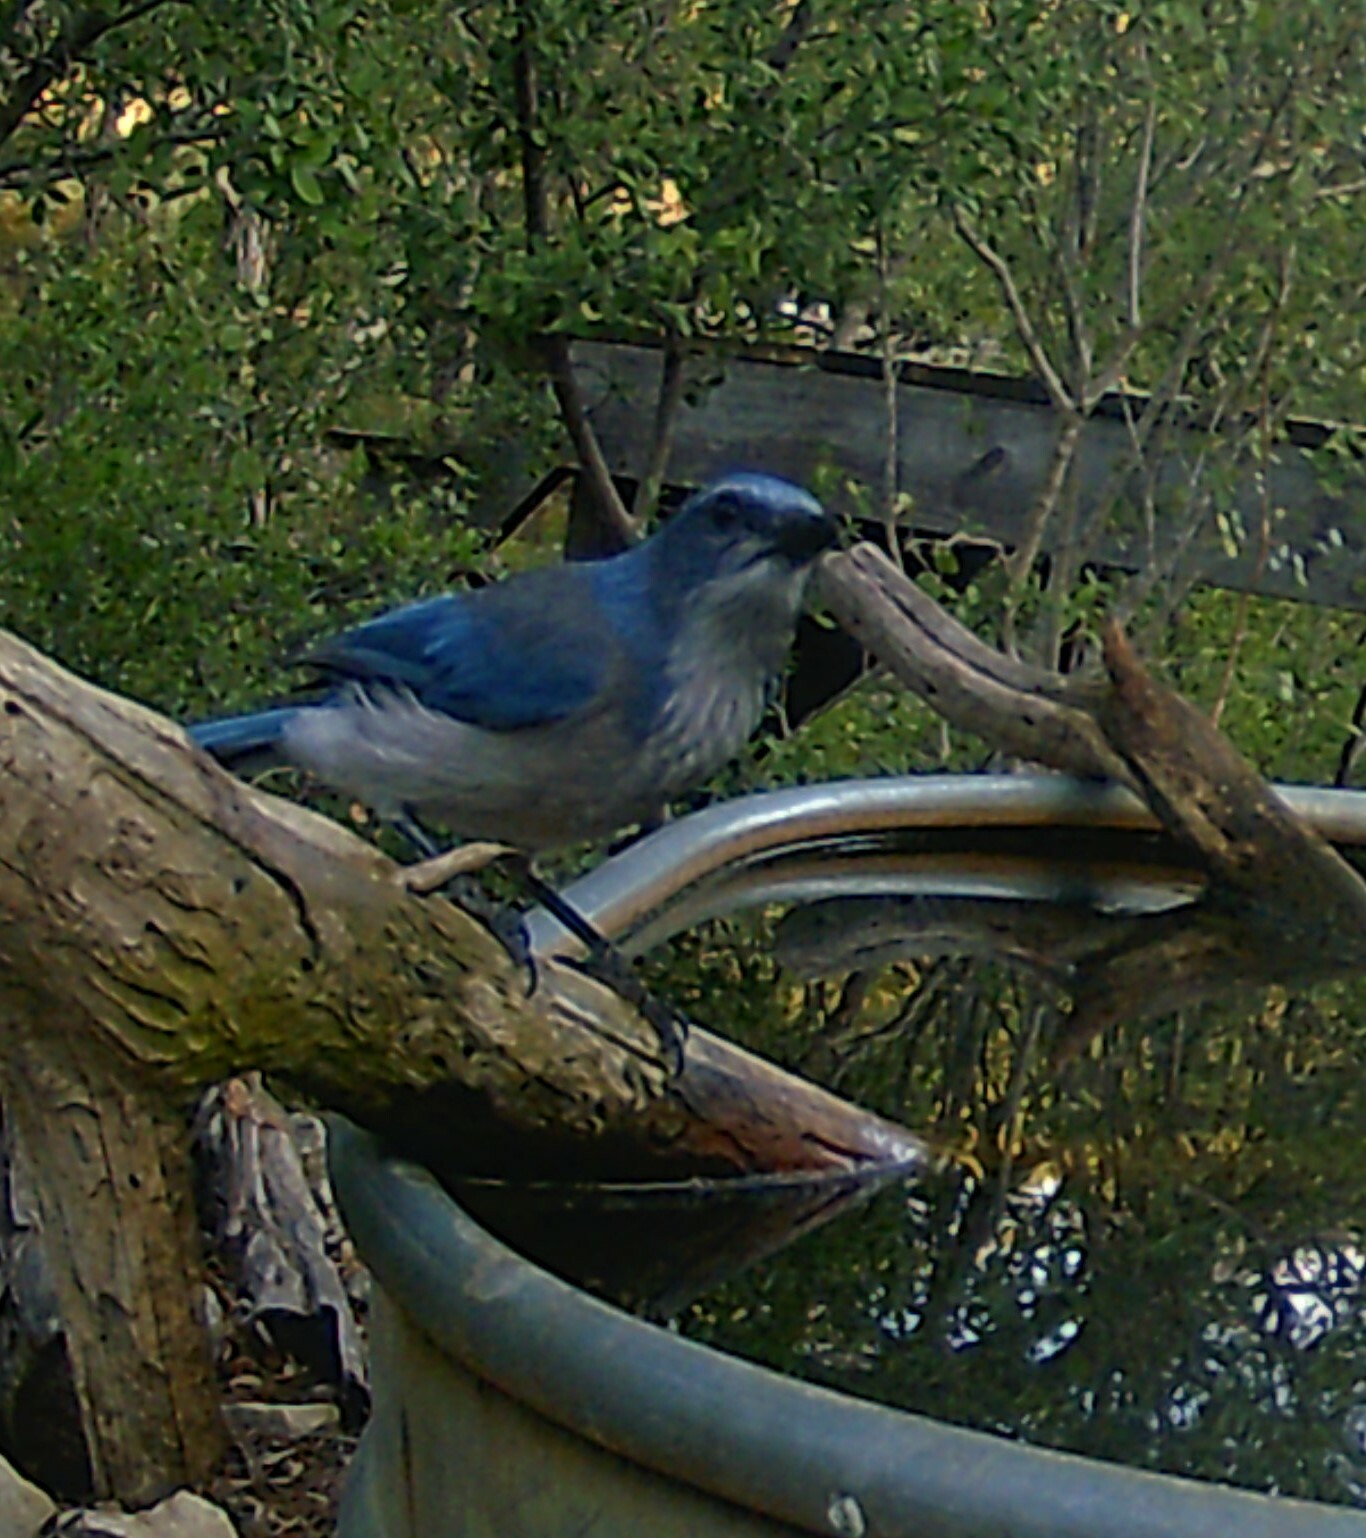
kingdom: Animalia
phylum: Chordata
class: Aves
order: Passeriformes
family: Corvidae
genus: Aphelocoma
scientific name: Aphelocoma woodhouseii
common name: Woodhouse's scrub-jay
